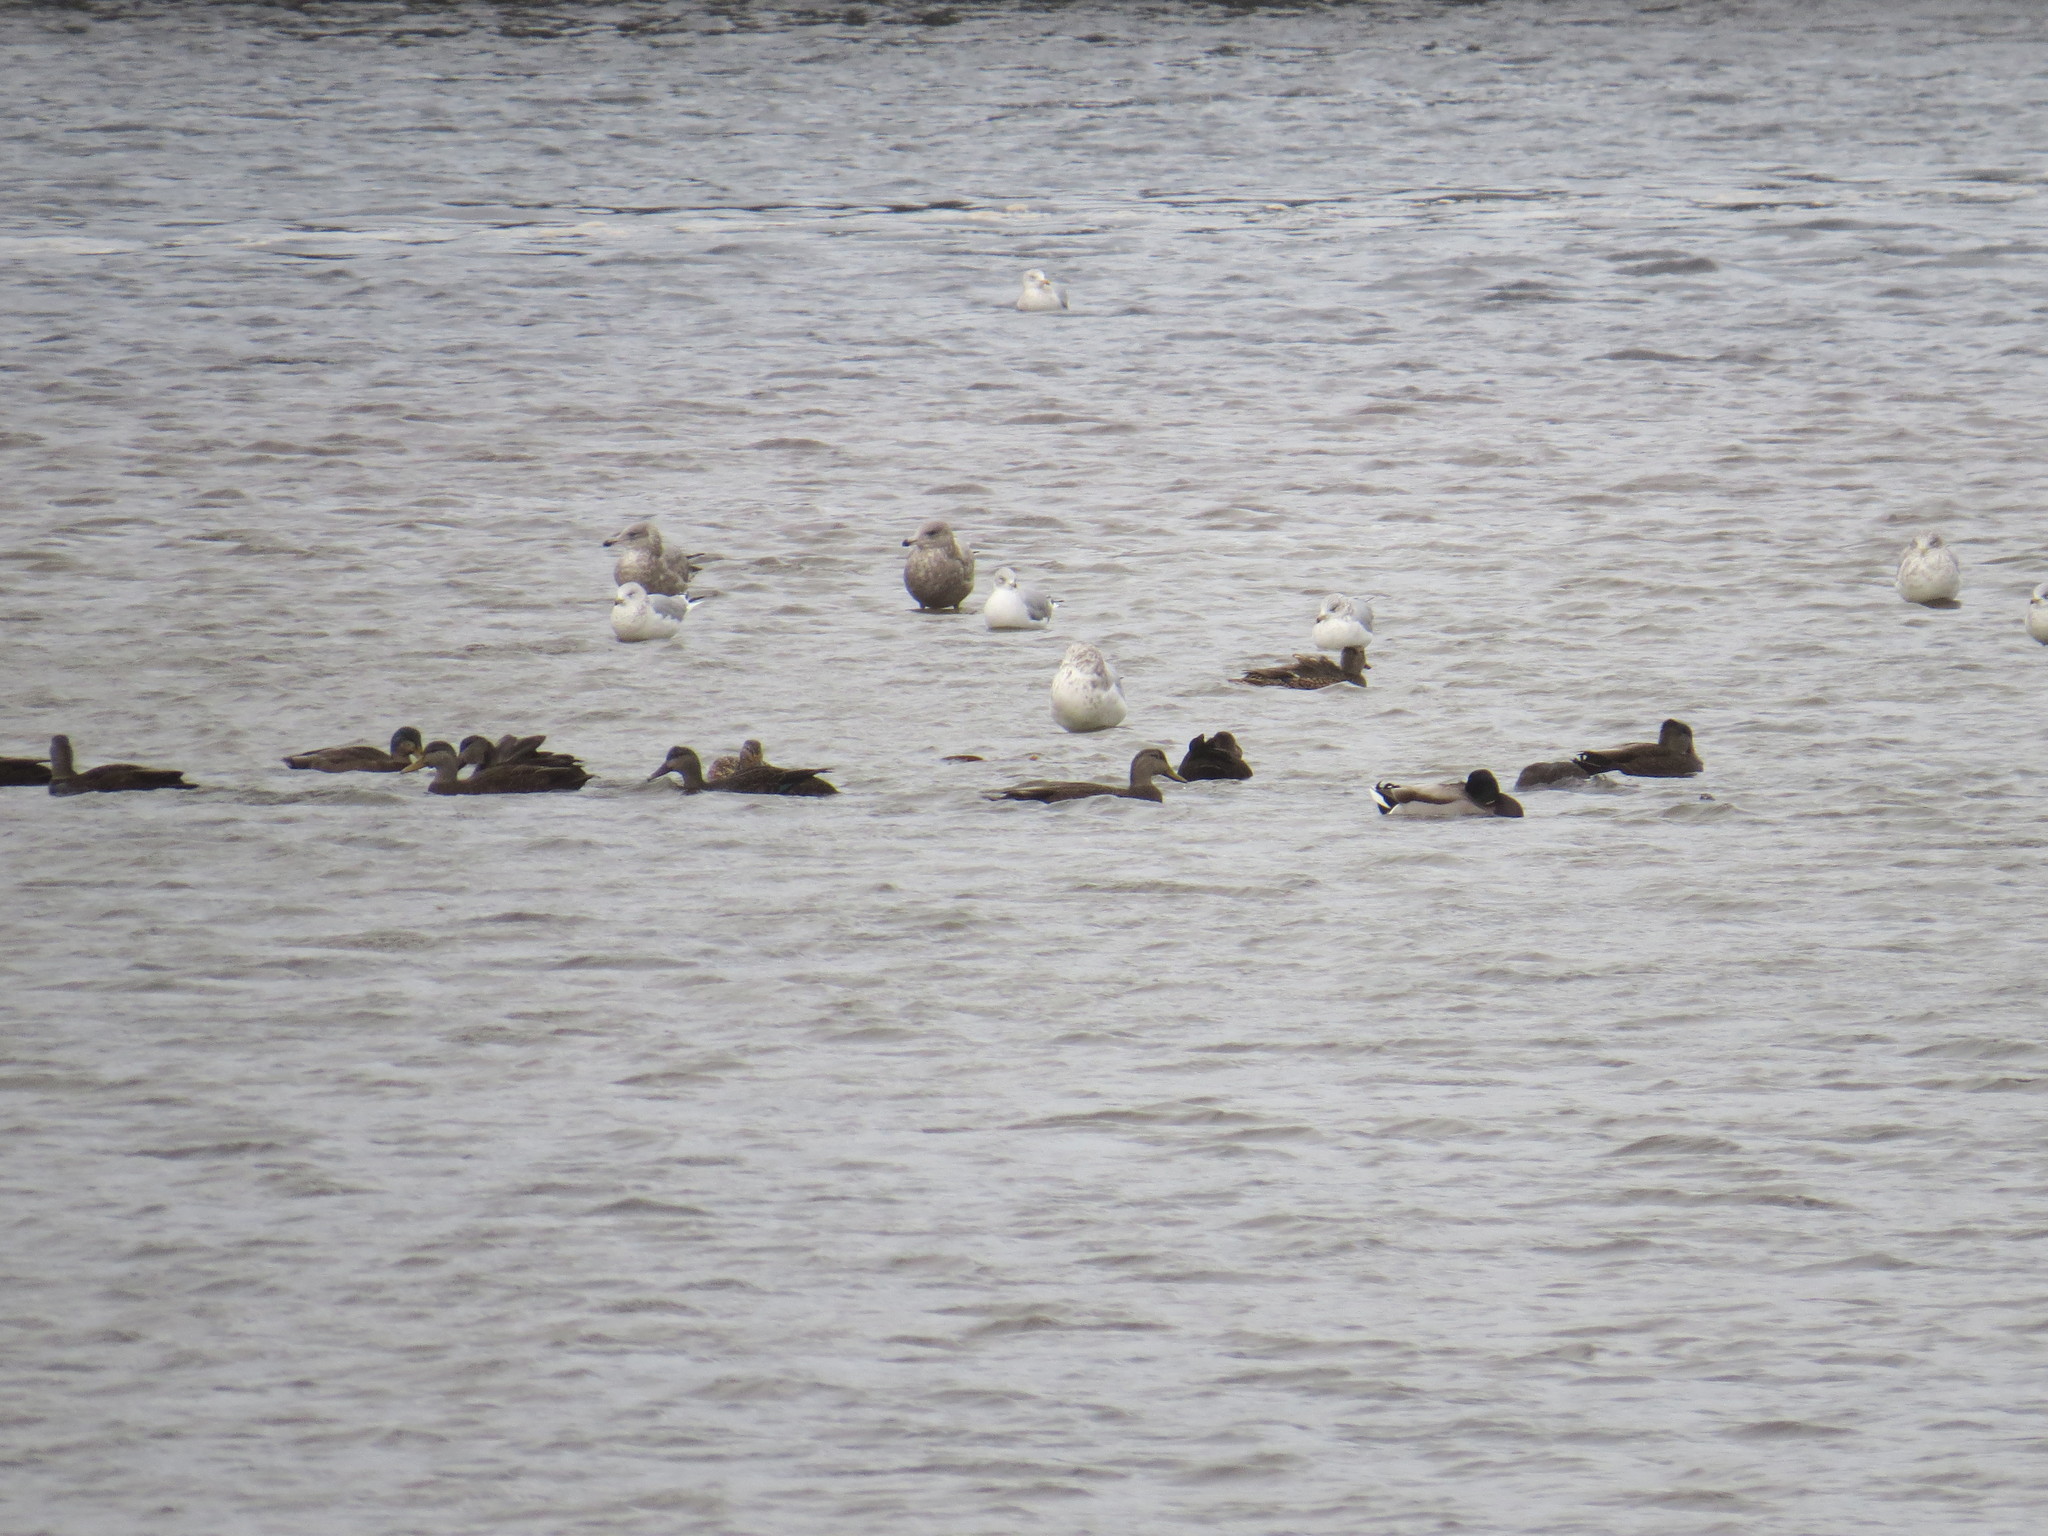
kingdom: Animalia
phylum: Chordata
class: Aves
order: Anseriformes
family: Anatidae
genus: Anas
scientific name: Anas rubripes
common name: American black duck
